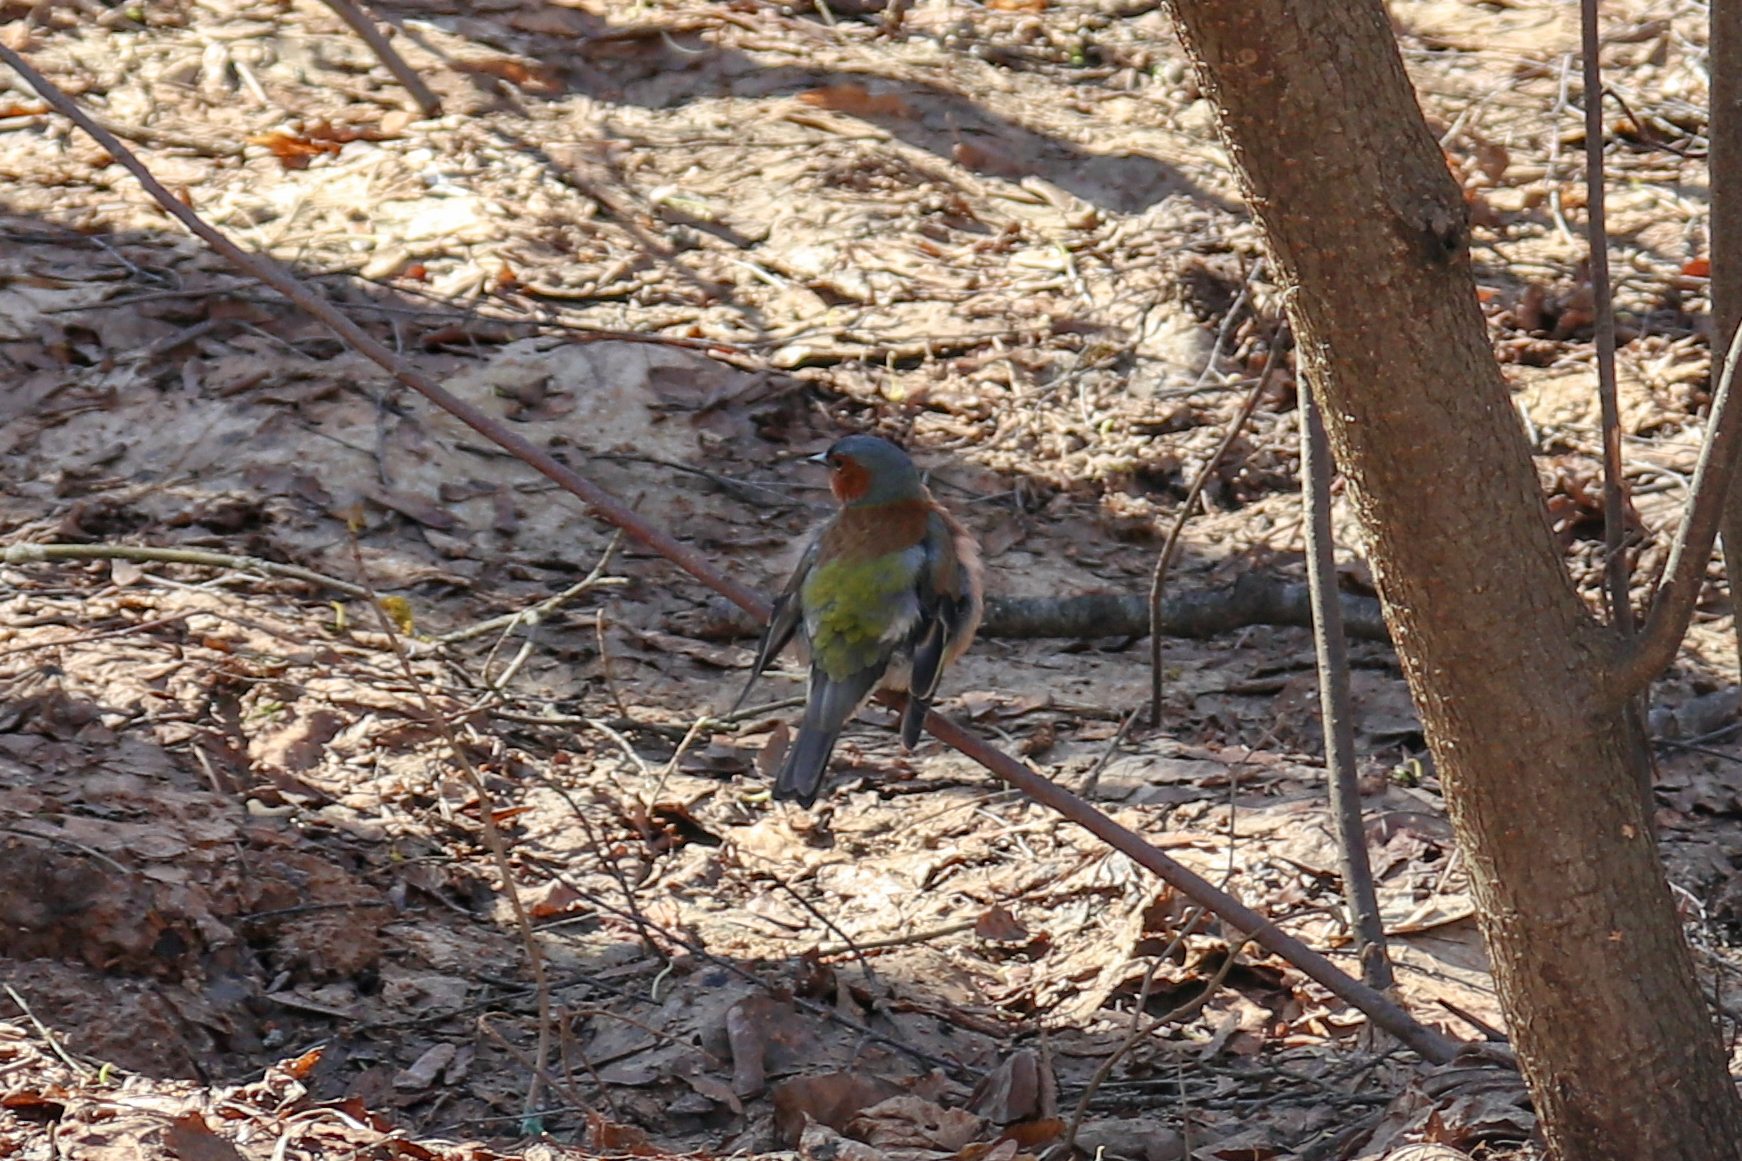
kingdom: Animalia
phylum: Chordata
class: Aves
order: Passeriformes
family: Fringillidae
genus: Fringilla
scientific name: Fringilla coelebs
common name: Common chaffinch
